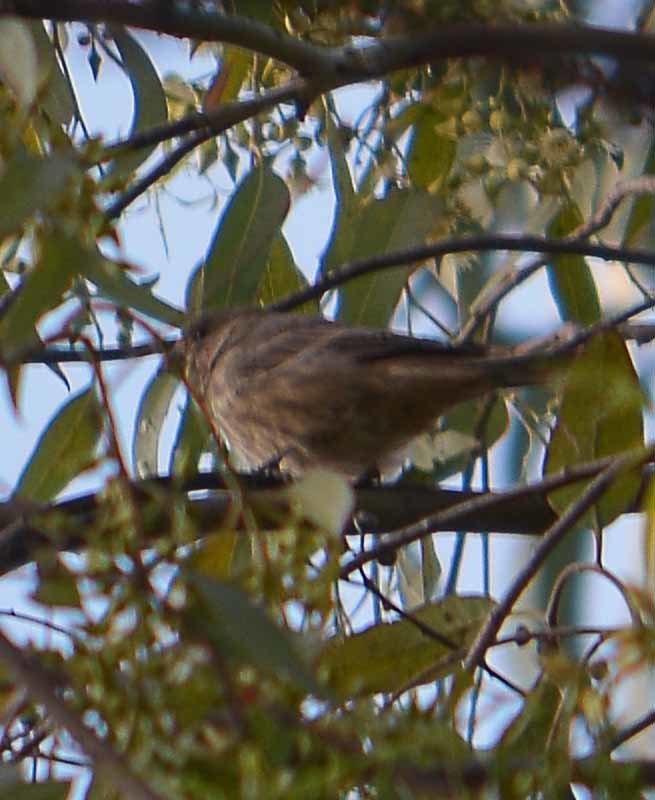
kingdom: Animalia
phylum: Chordata
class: Aves
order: Passeriformes
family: Fringillidae
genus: Haemorhous
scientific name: Haemorhous mexicanus
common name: House finch
